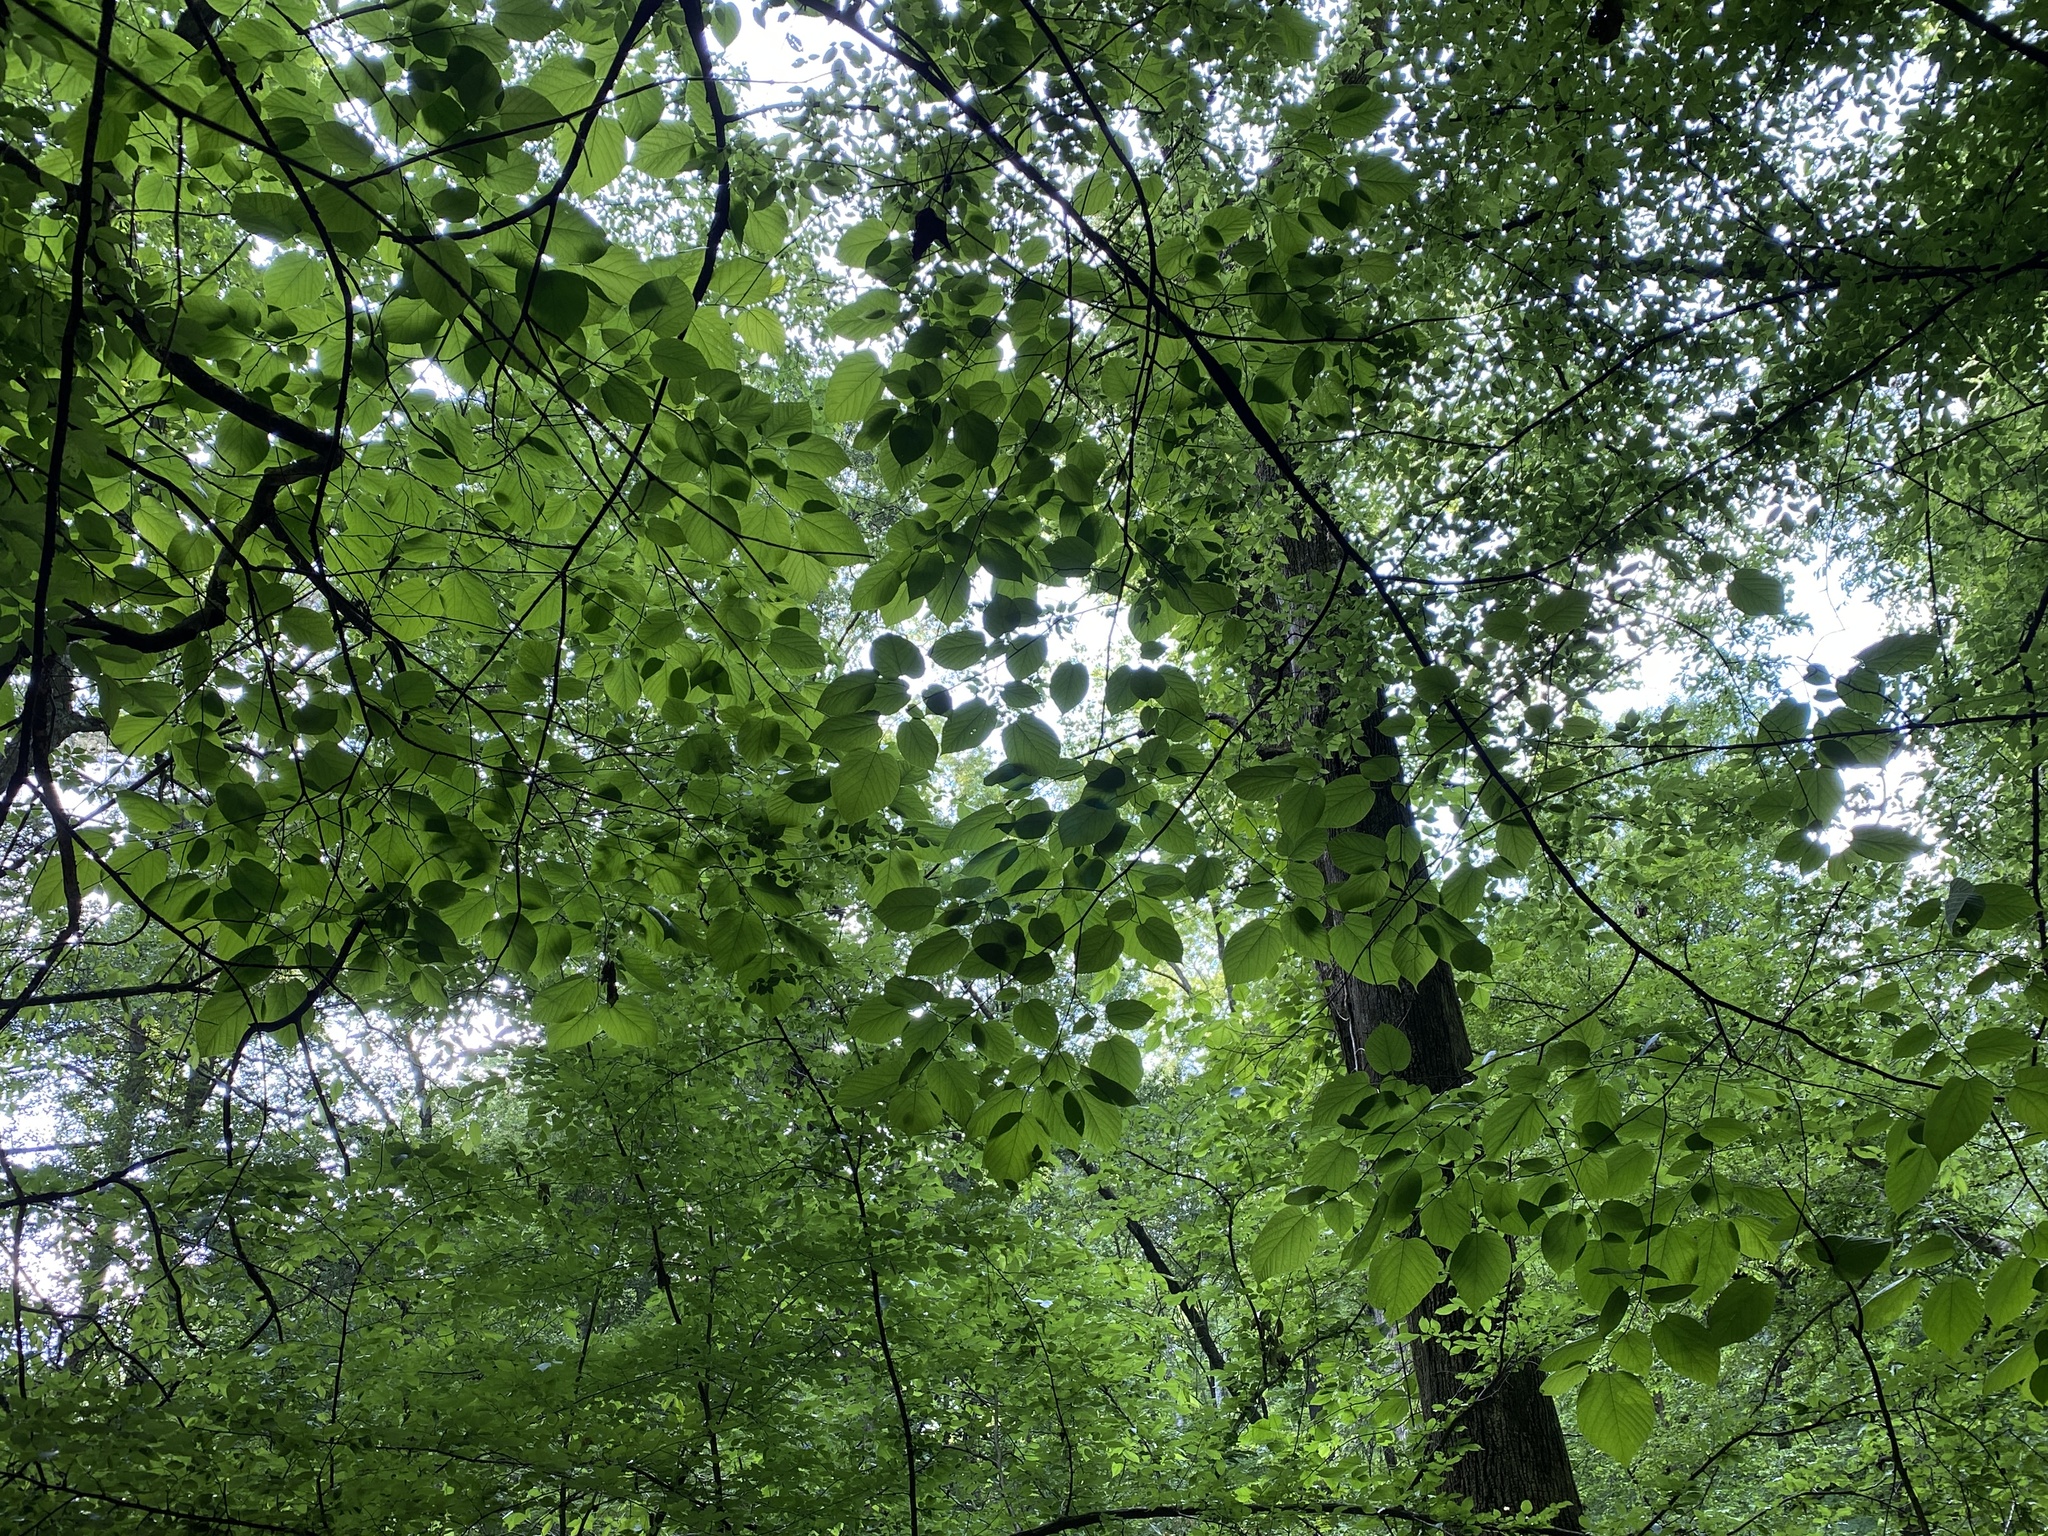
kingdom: Plantae
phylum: Tracheophyta
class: Magnoliopsida
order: Malvales
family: Malvaceae
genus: Tilia
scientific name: Tilia americana
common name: Basswood
